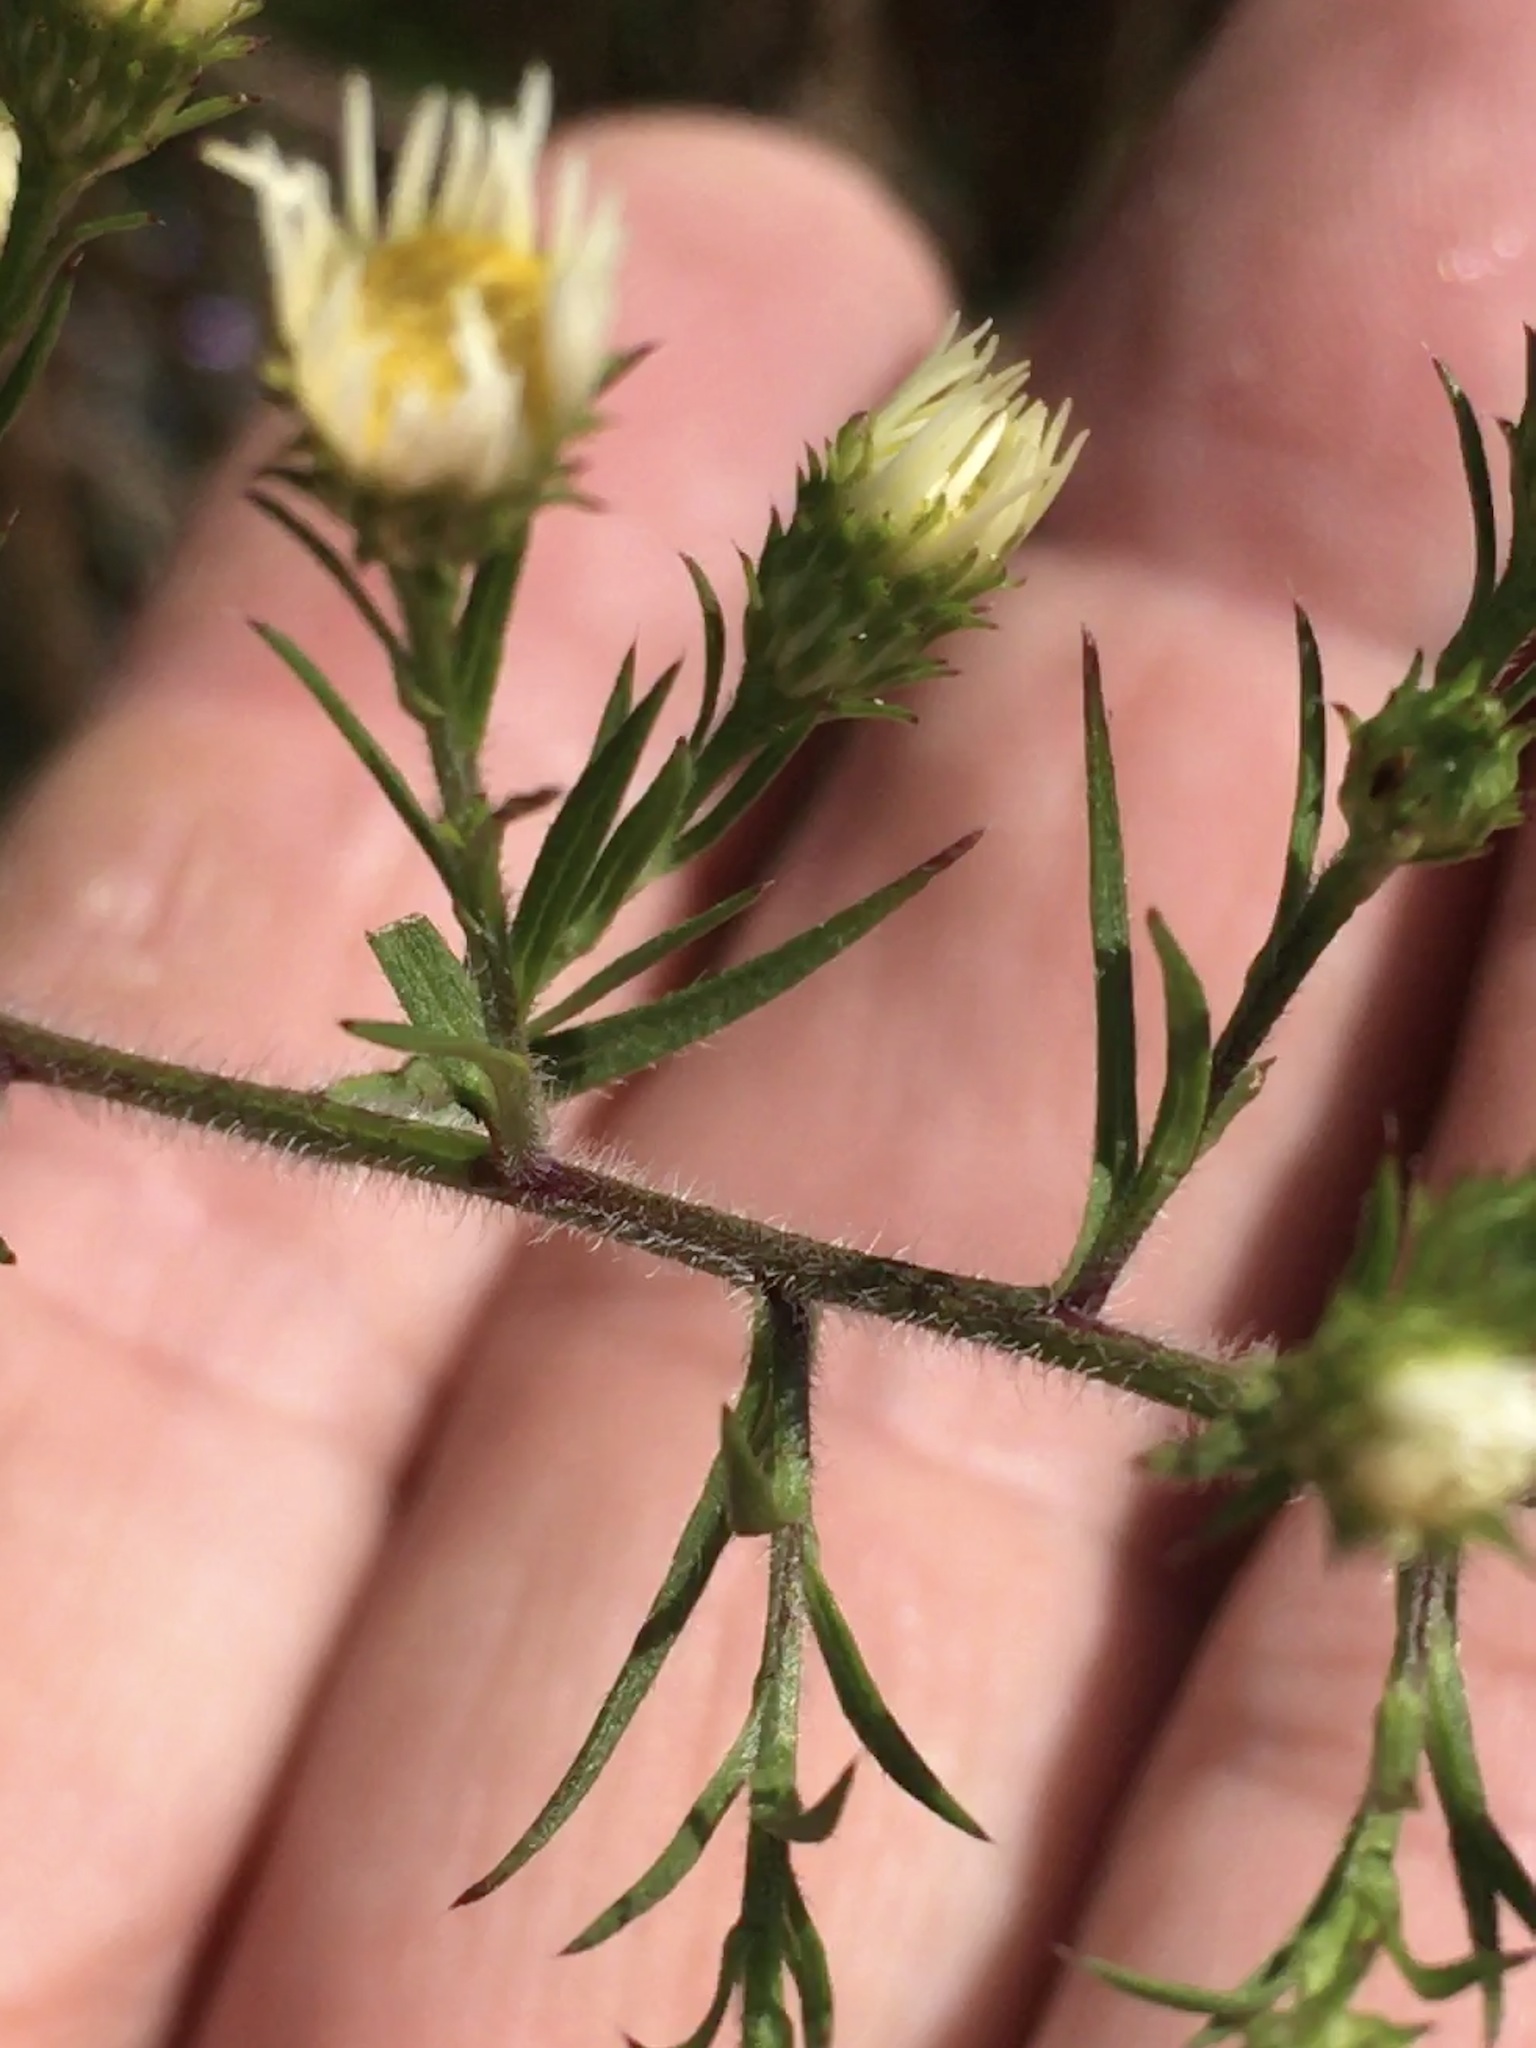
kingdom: Plantae
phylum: Tracheophyta
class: Magnoliopsida
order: Asterales
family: Asteraceae
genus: Symphyotrichum
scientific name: Symphyotrichum pilosum
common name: Awl aster
